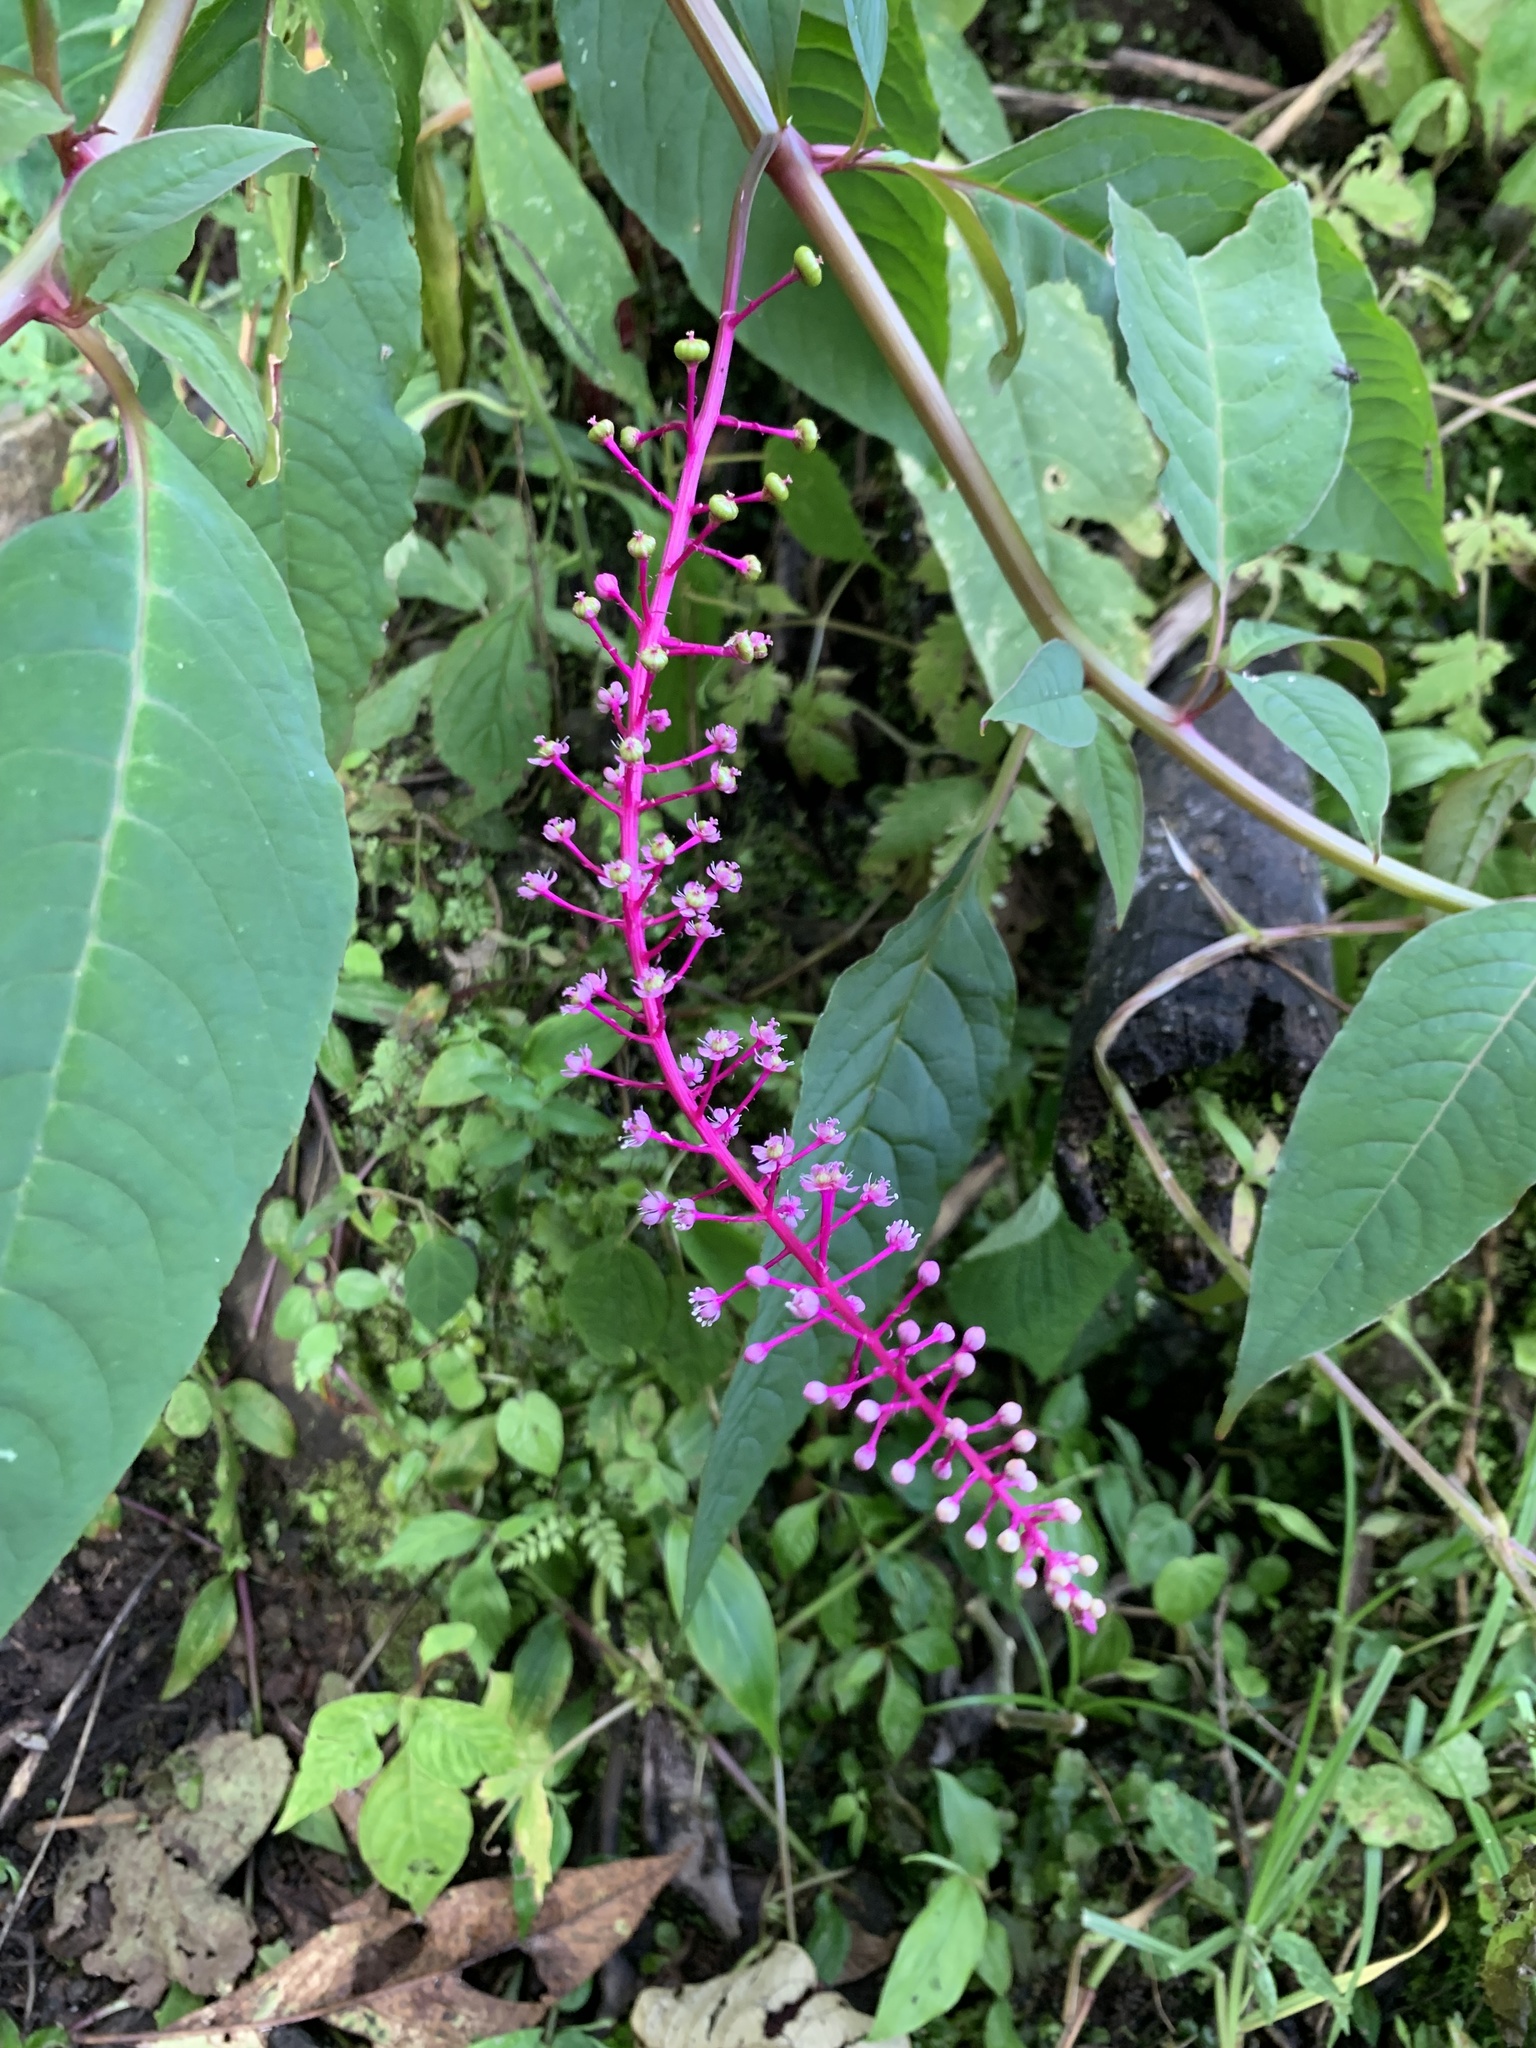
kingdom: Plantae
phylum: Tracheophyta
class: Magnoliopsida
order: Caryophyllales
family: Phytolaccaceae
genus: Phytolacca
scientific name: Phytolacca rivinoides
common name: Venezuelan pokeweed
